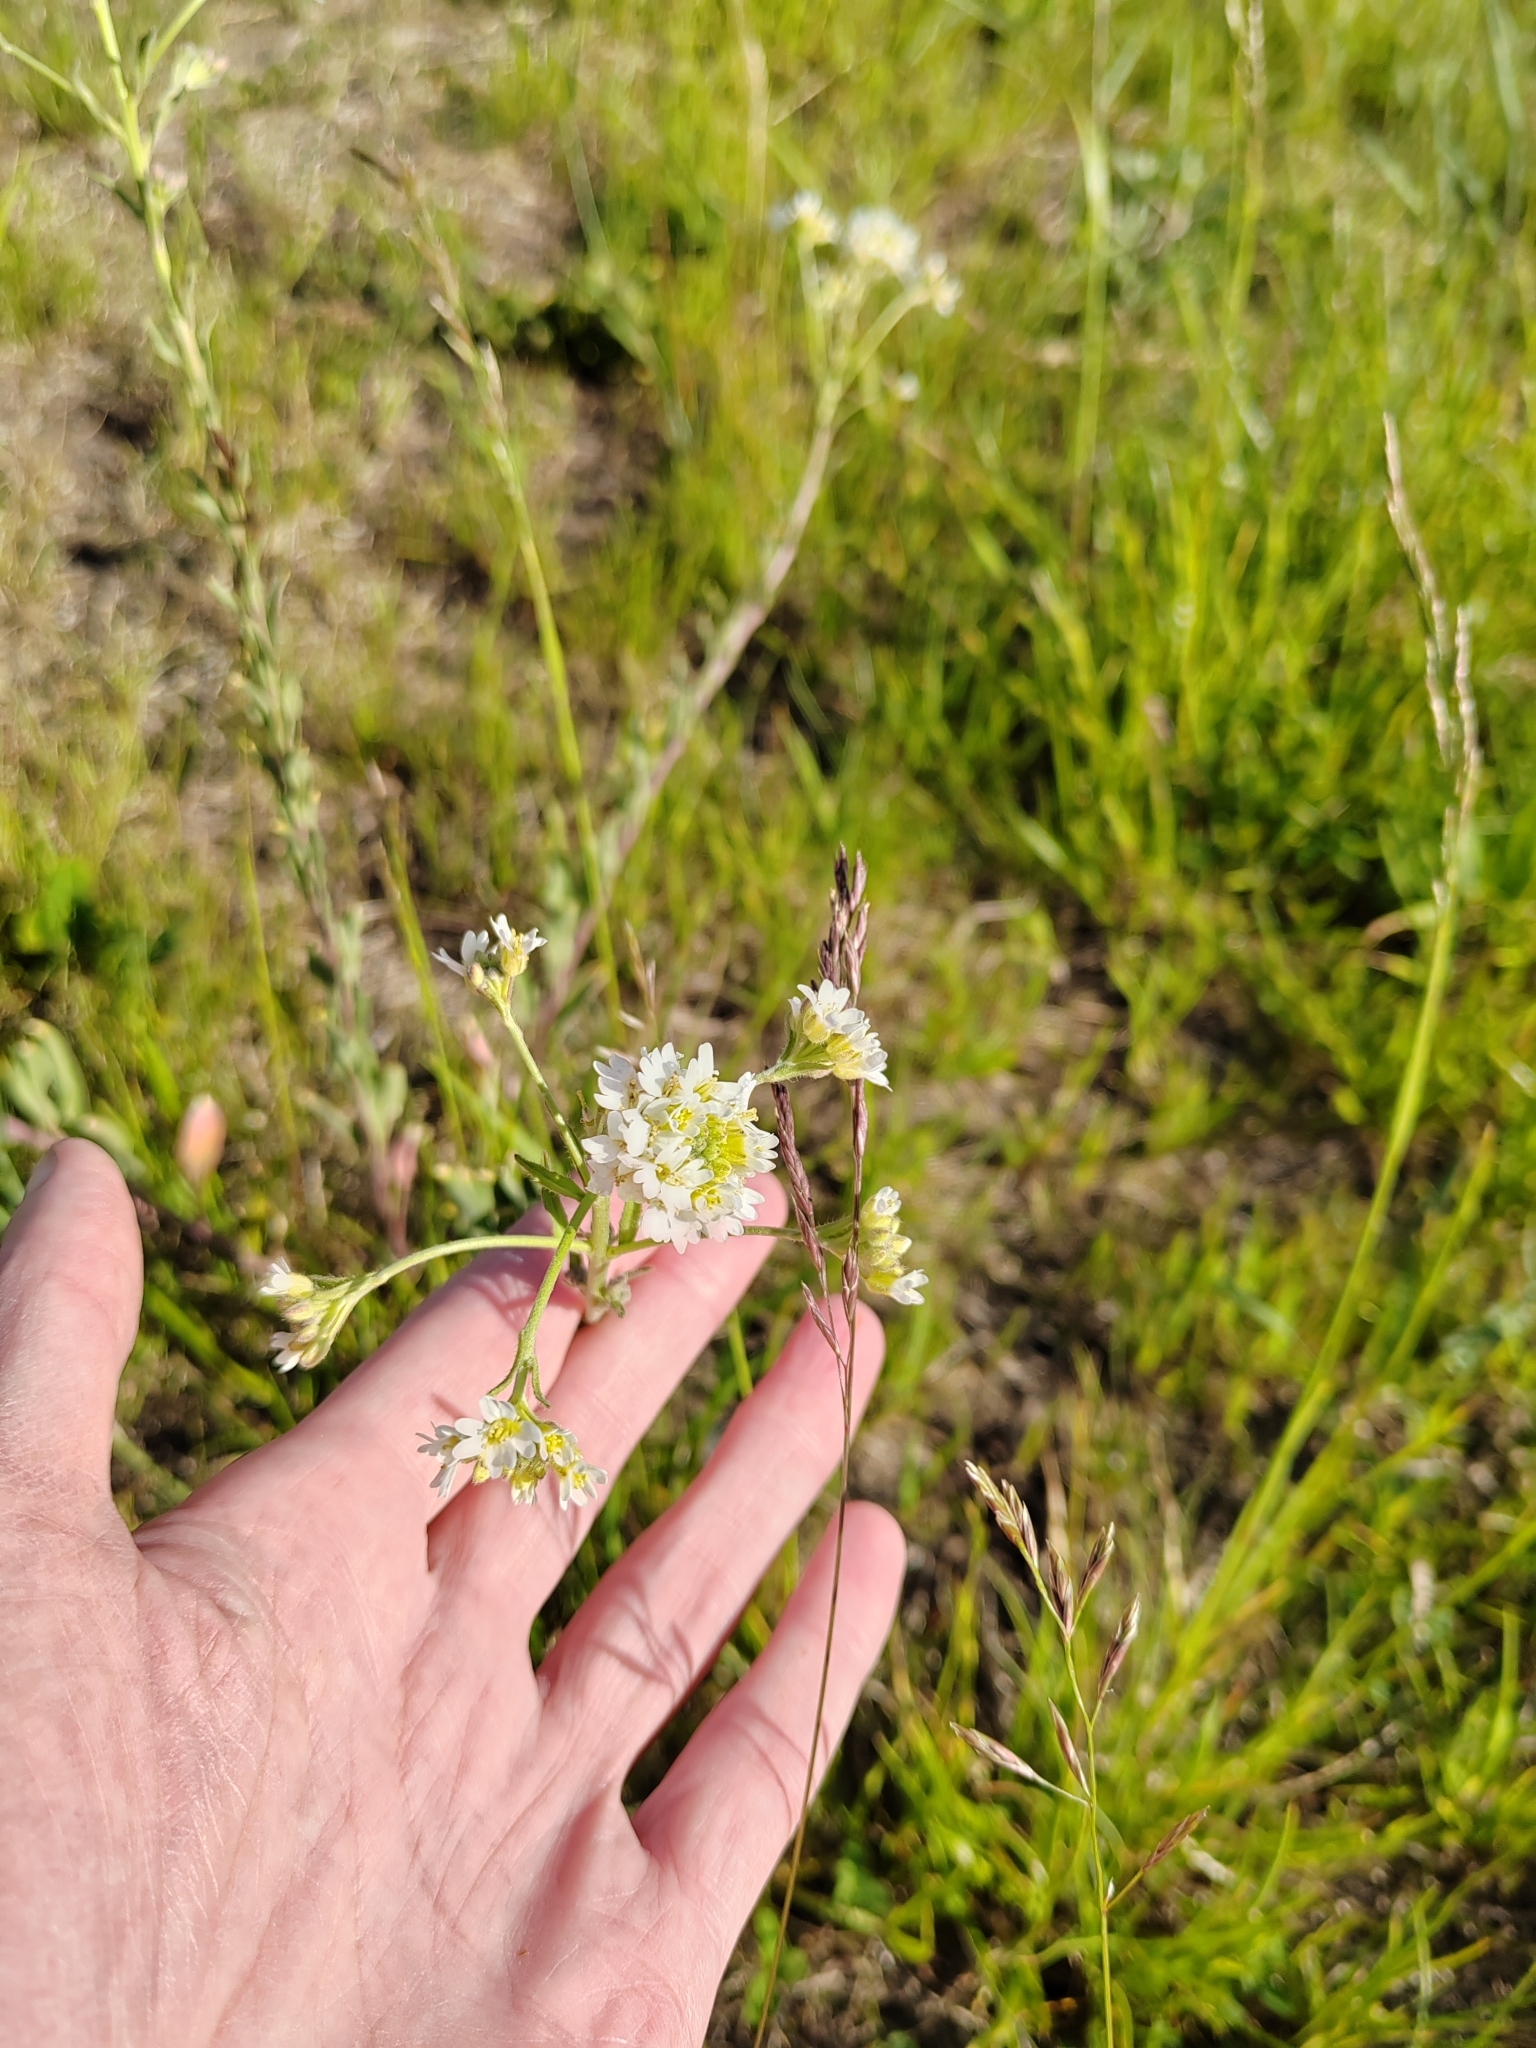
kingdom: Plantae
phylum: Tracheophyta
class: Magnoliopsida
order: Brassicales
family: Brassicaceae
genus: Berteroa
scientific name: Berteroa incana
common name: Hoary alison
